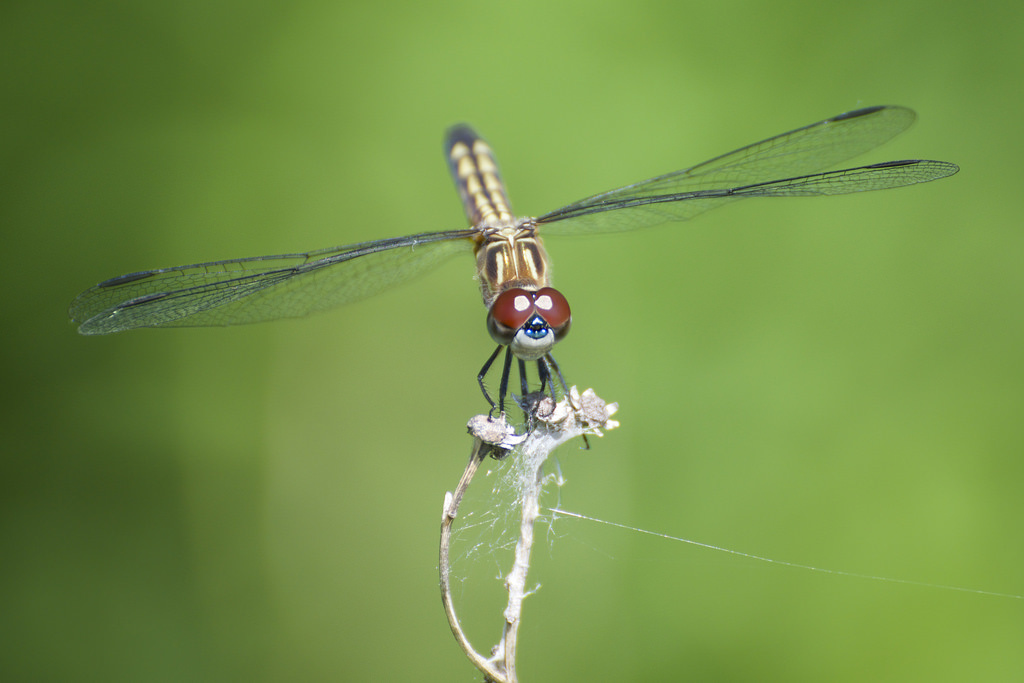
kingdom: Animalia
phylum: Arthropoda
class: Insecta
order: Odonata
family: Libellulidae
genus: Pachydiplax
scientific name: Pachydiplax longipennis
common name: Blue dasher
